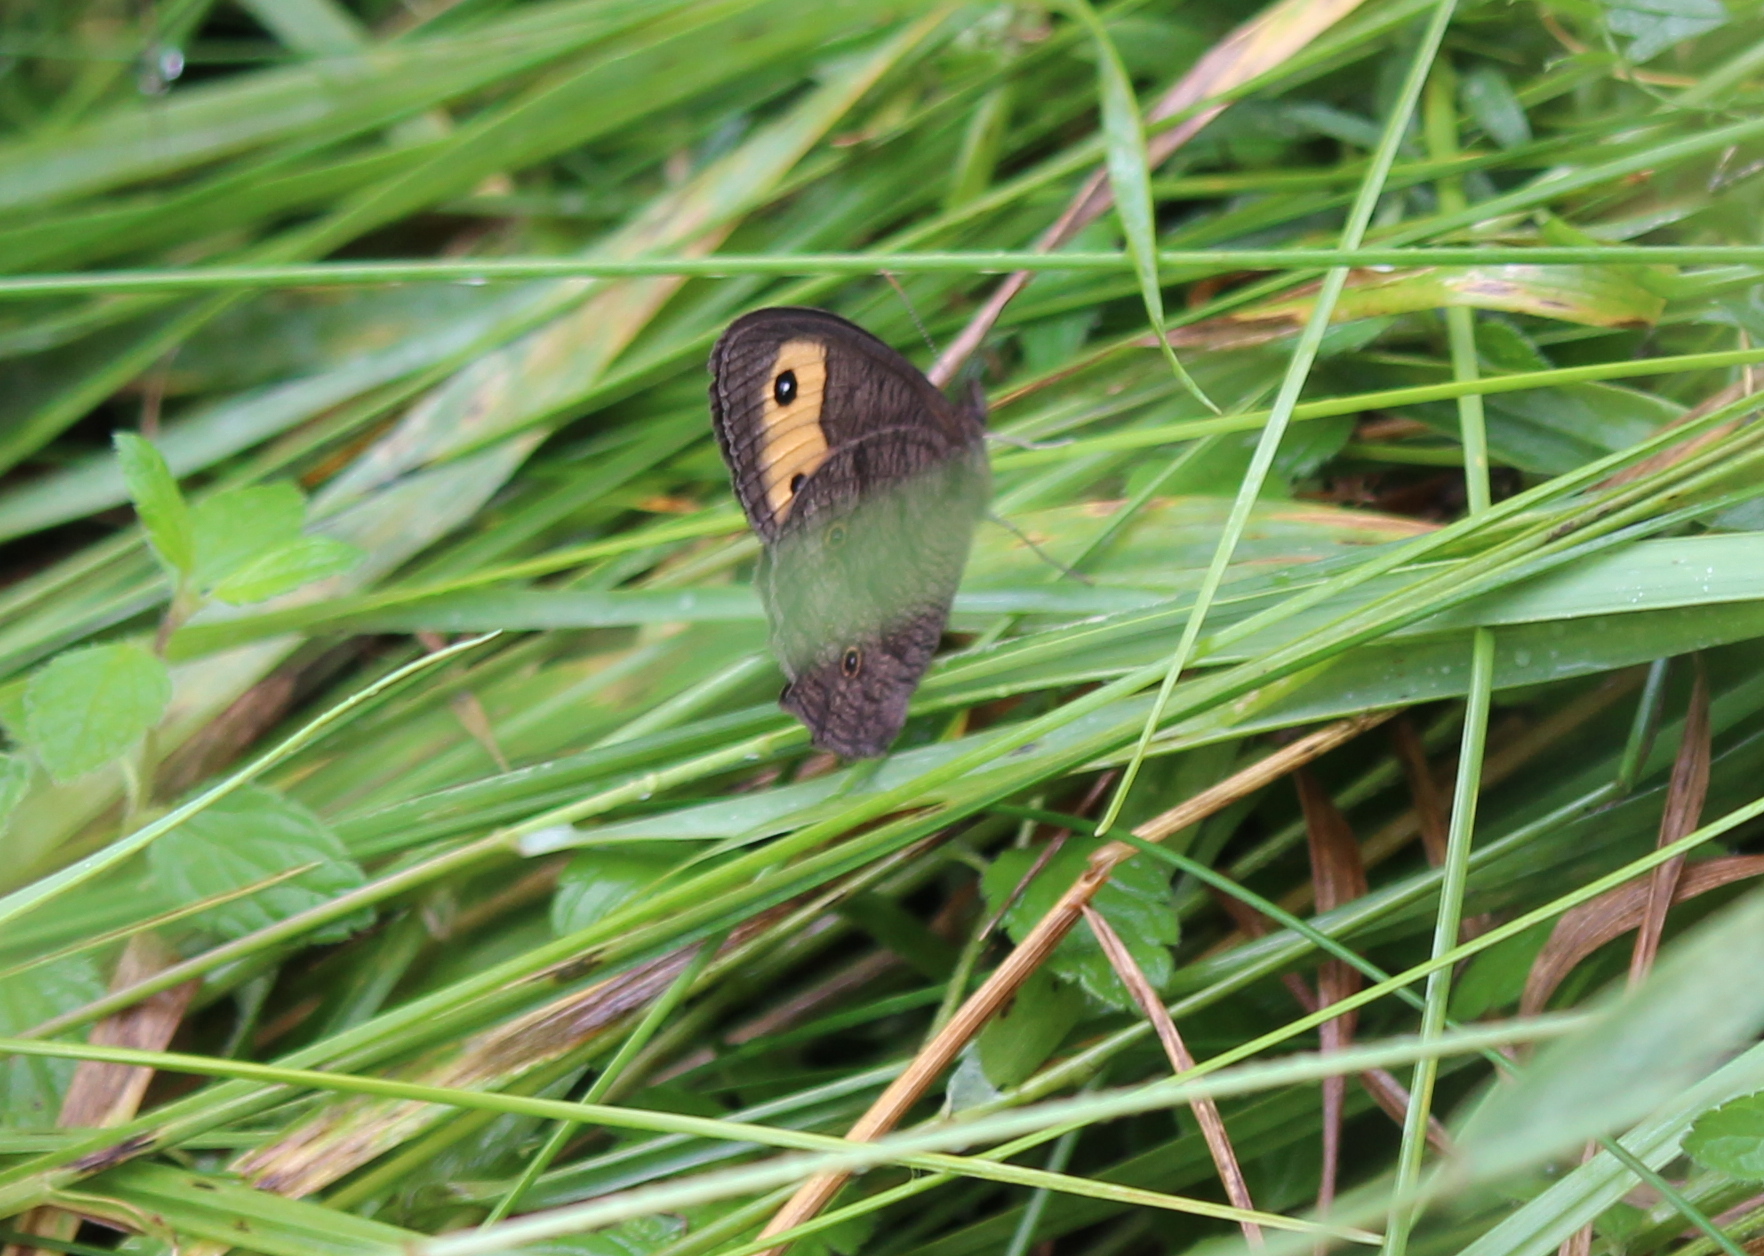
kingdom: Animalia
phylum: Arthropoda
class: Insecta
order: Lepidoptera
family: Nymphalidae
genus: Cercyonis
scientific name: Cercyonis pegala
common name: Common wood-nymph
